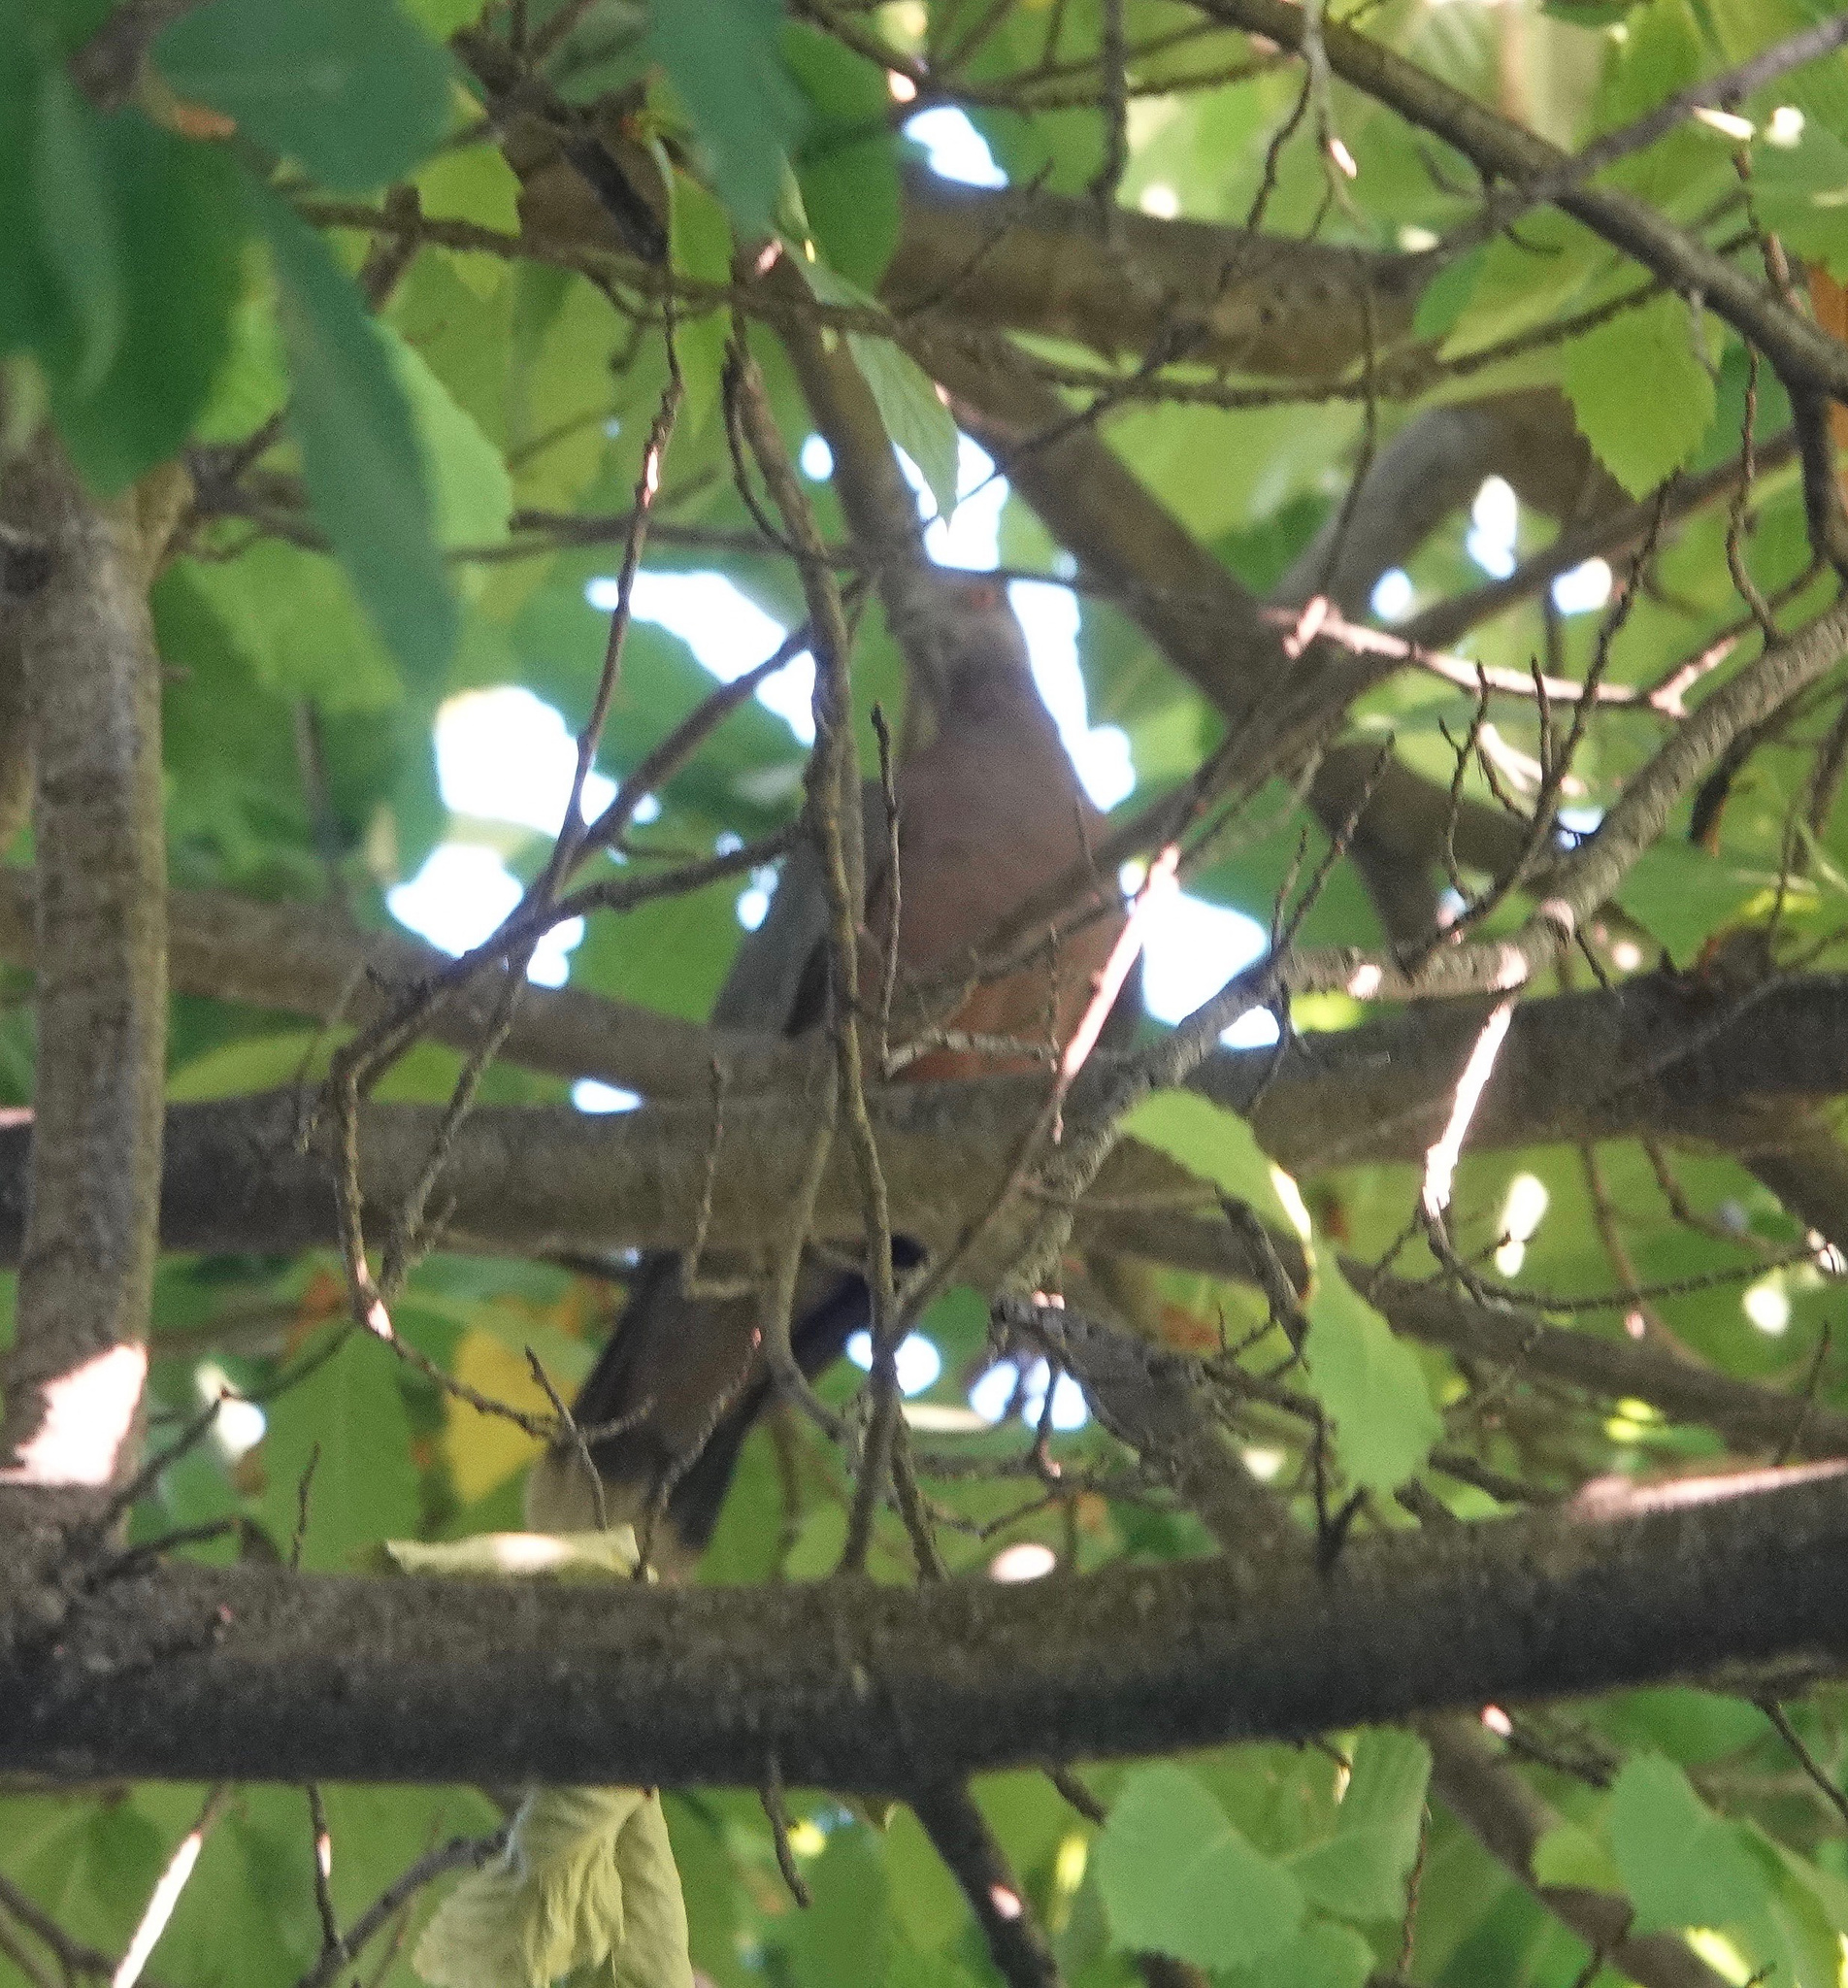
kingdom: Animalia
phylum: Chordata
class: Aves
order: Columbiformes
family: Columbidae
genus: Patagioenas
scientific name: Patagioenas araucana
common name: Chilean pigeon
